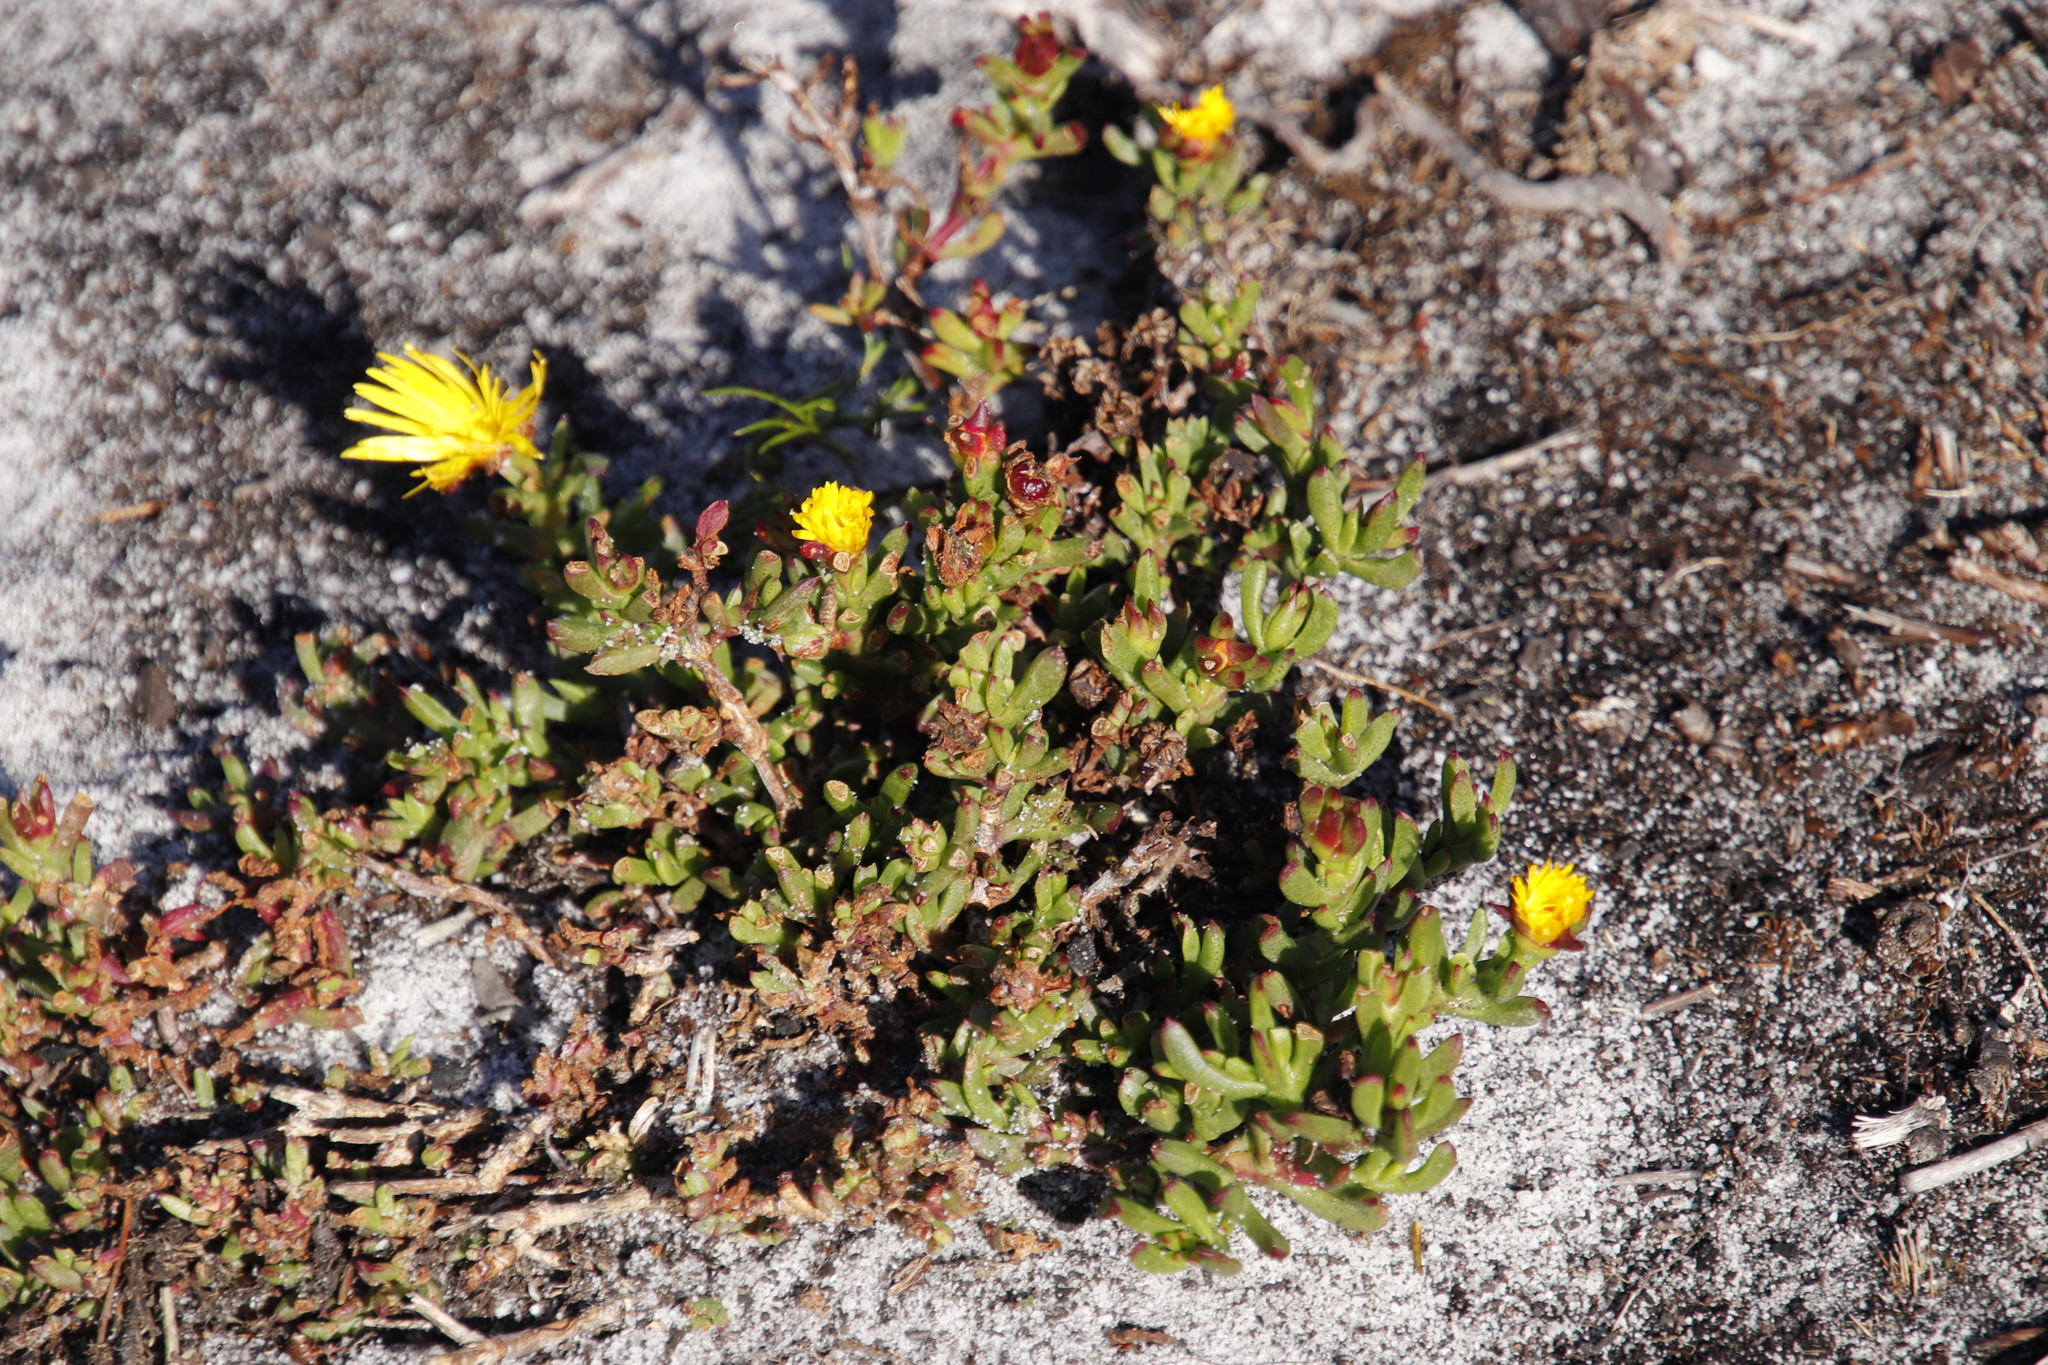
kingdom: Plantae
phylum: Tracheophyta
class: Magnoliopsida
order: Caryophyllales
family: Aizoaceae
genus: Lampranthus
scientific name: Lampranthus promontorii
